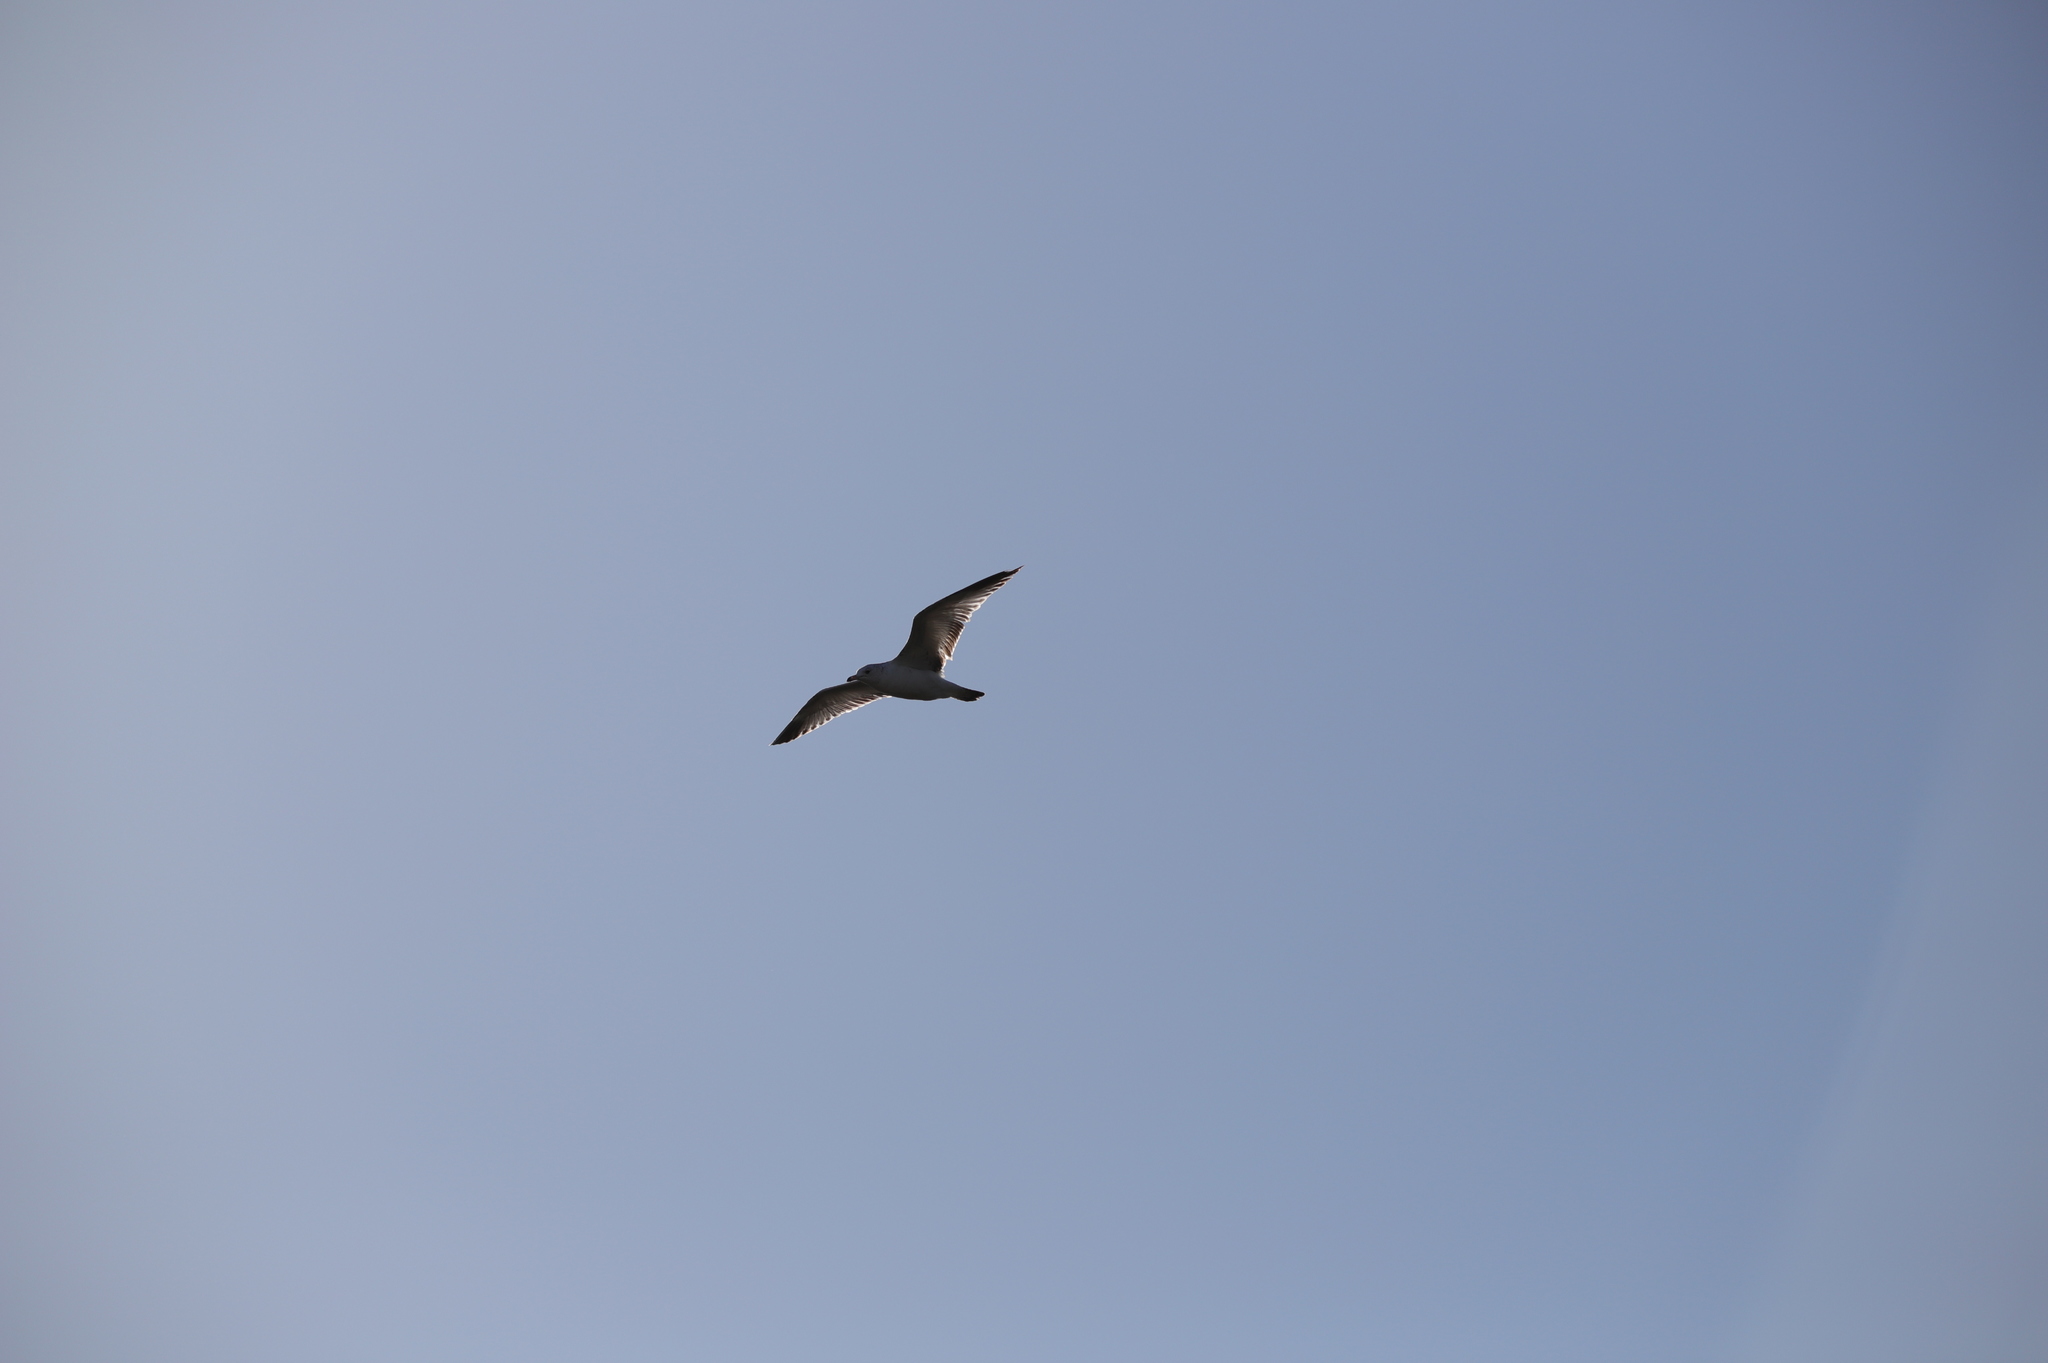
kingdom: Animalia
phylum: Chordata
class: Aves
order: Charadriiformes
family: Laridae
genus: Larus
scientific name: Larus delawarensis
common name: Ring-billed gull
